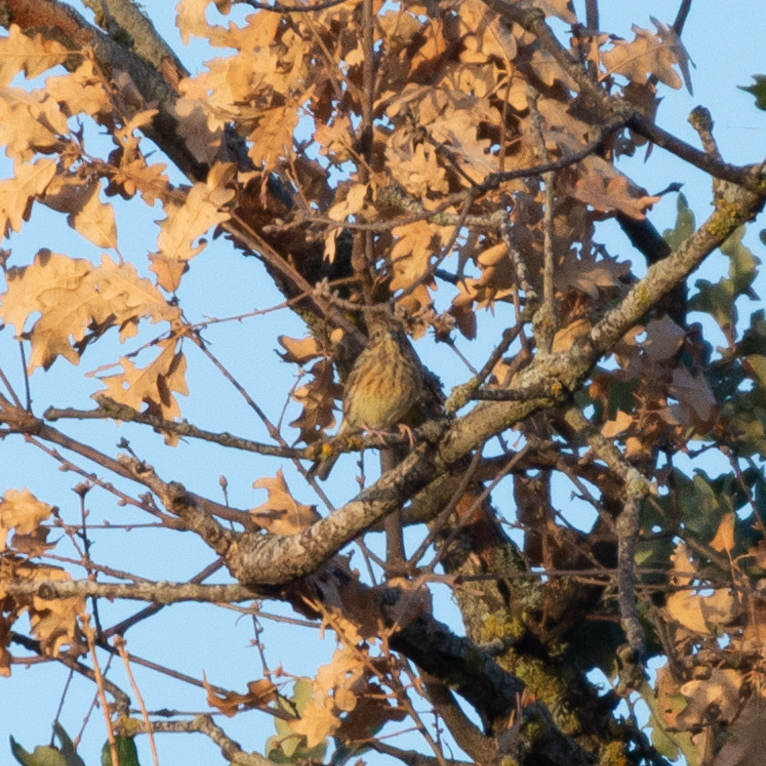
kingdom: Animalia
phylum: Chordata
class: Aves
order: Passeriformes
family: Emberizidae
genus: Emberiza
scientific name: Emberiza cirlus
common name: Cirl bunting
